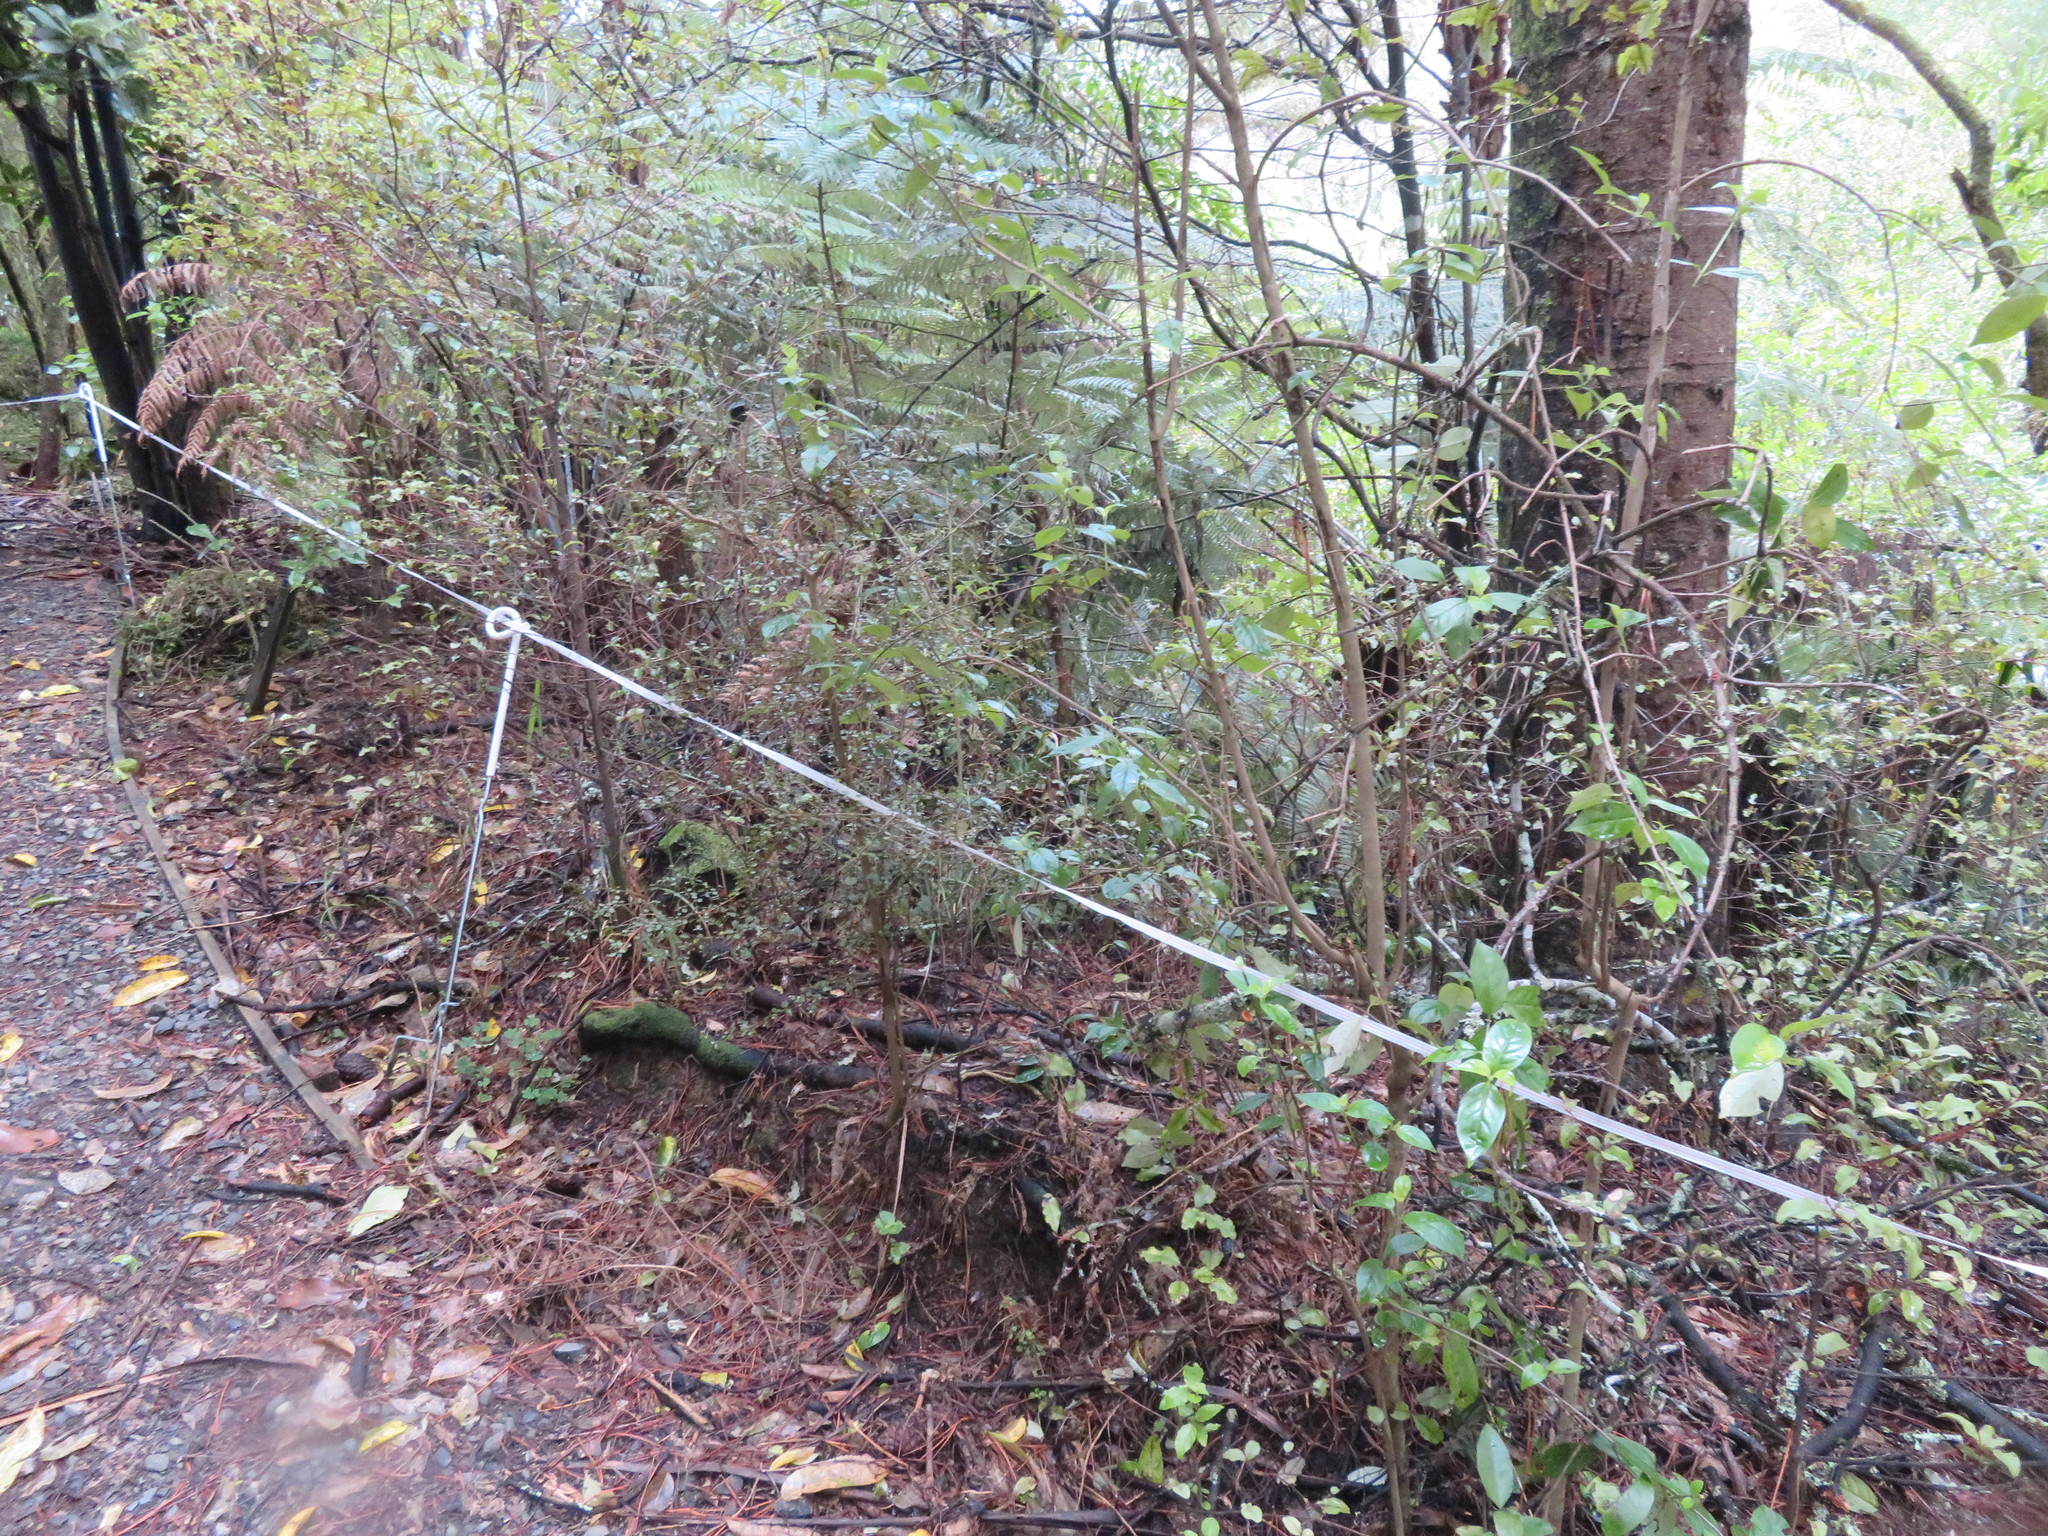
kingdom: Plantae
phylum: Tracheophyta
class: Magnoliopsida
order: Gentianales
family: Loganiaceae
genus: Geniostoma
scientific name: Geniostoma ligustrifolium
